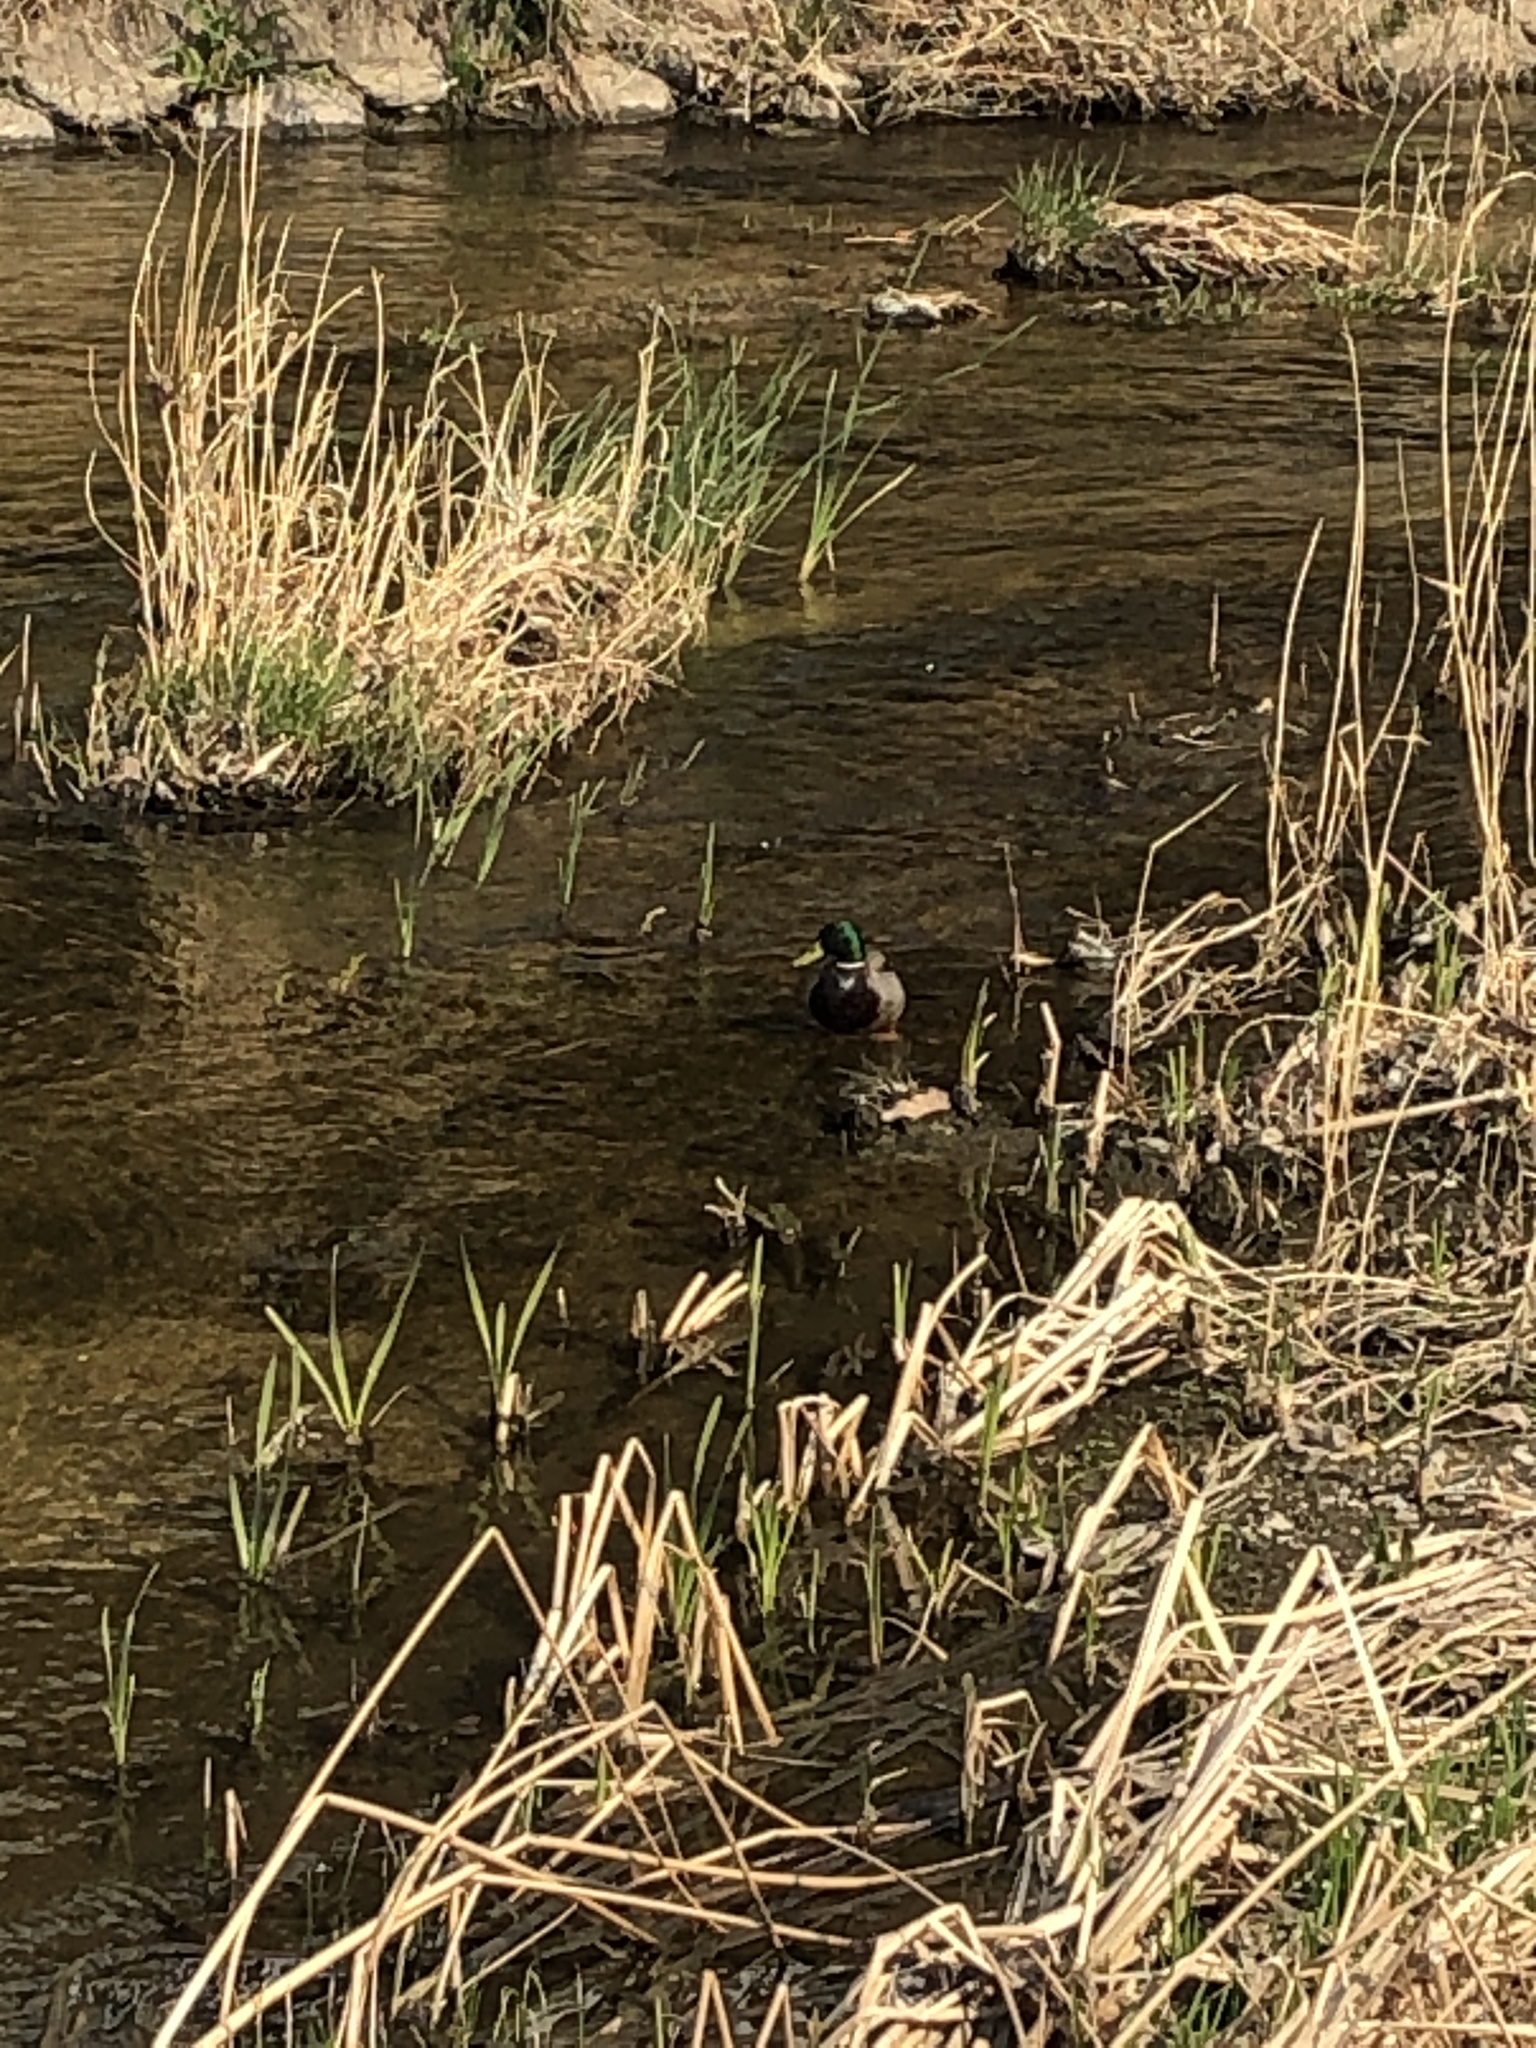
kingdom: Animalia
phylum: Chordata
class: Aves
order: Anseriformes
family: Anatidae
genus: Anas
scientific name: Anas platyrhynchos
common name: Mallard
